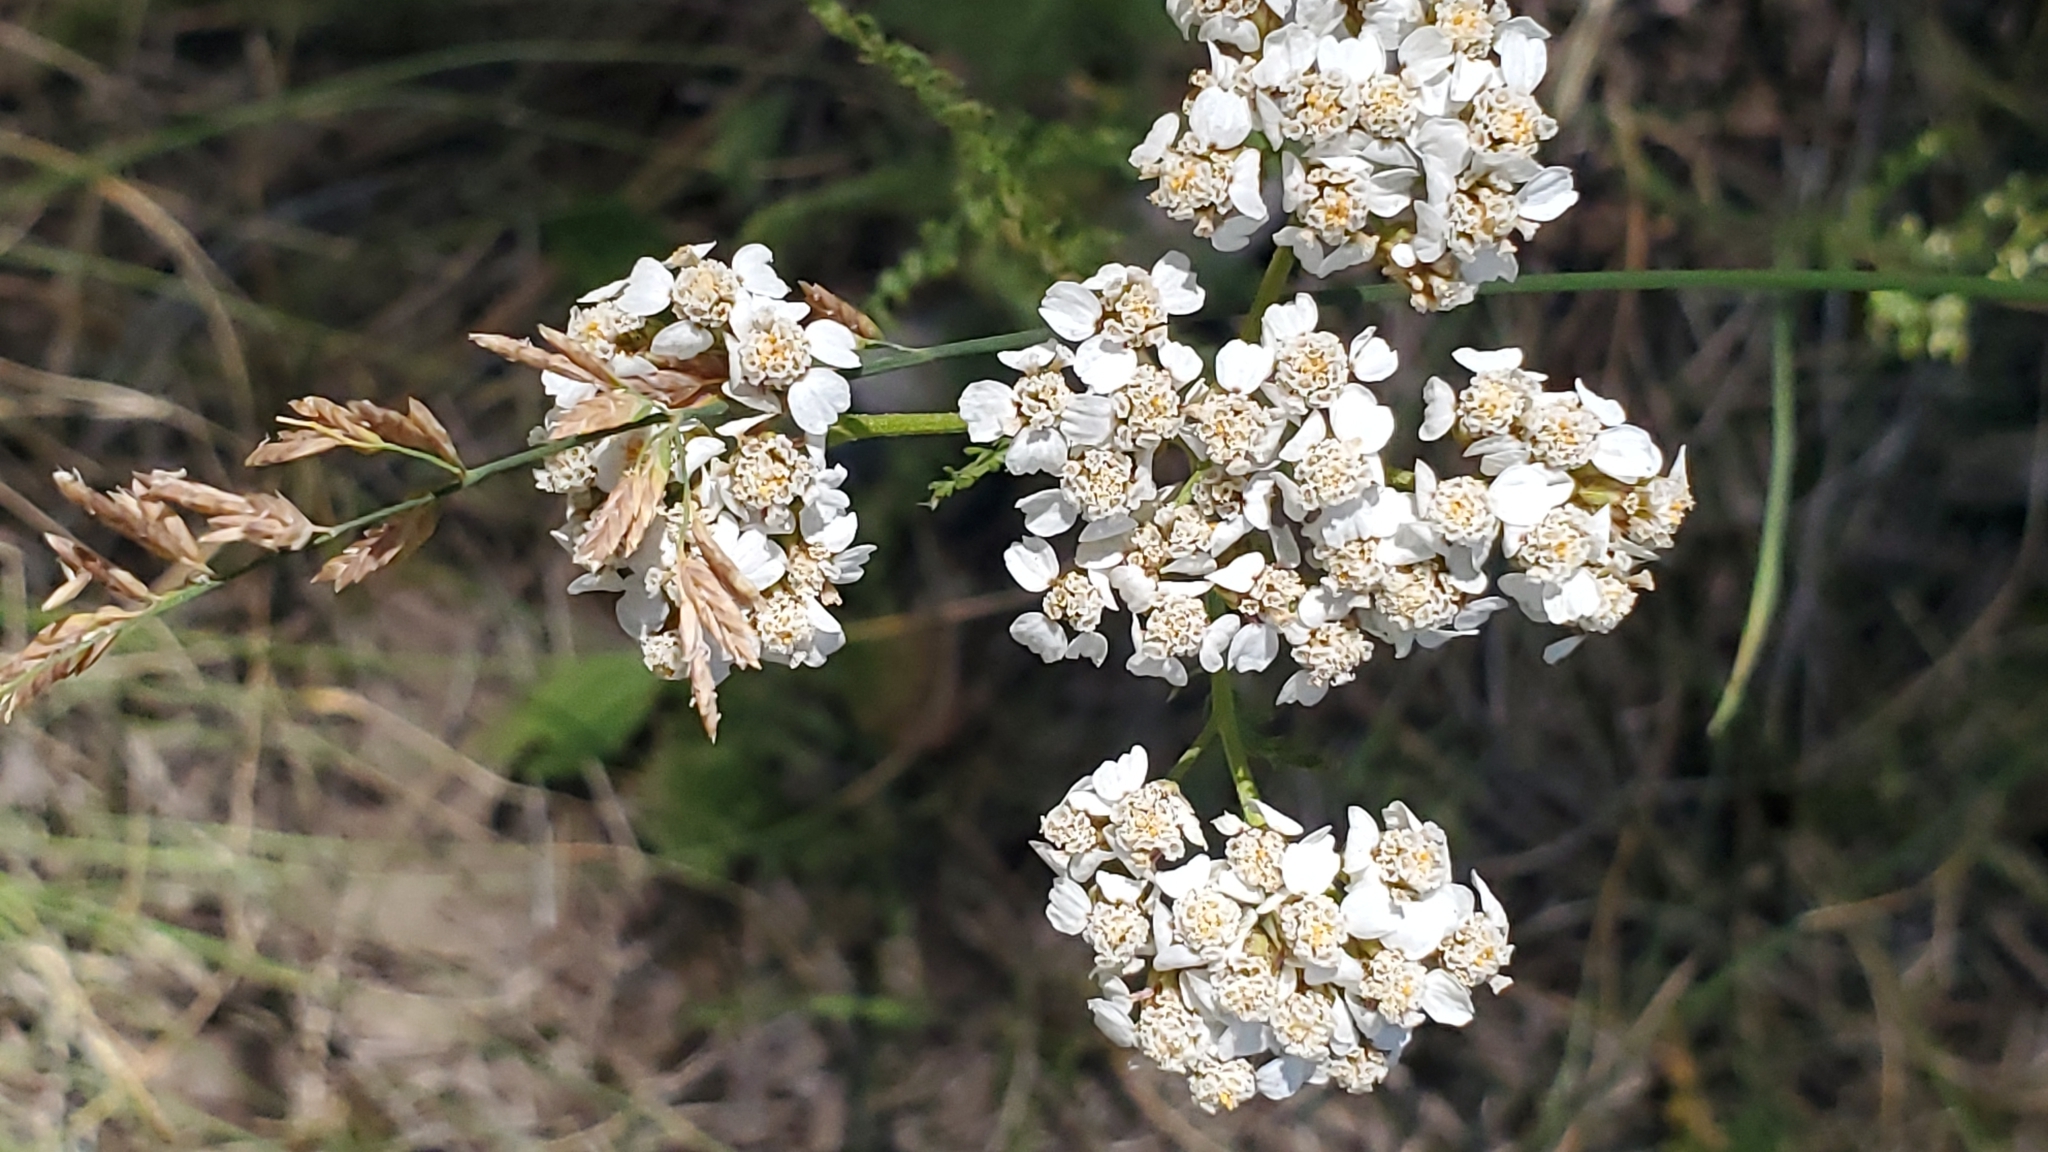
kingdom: Plantae
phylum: Tracheophyta
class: Magnoliopsida
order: Asterales
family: Asteraceae
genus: Achillea
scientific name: Achillea millefolium
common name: Yarrow
